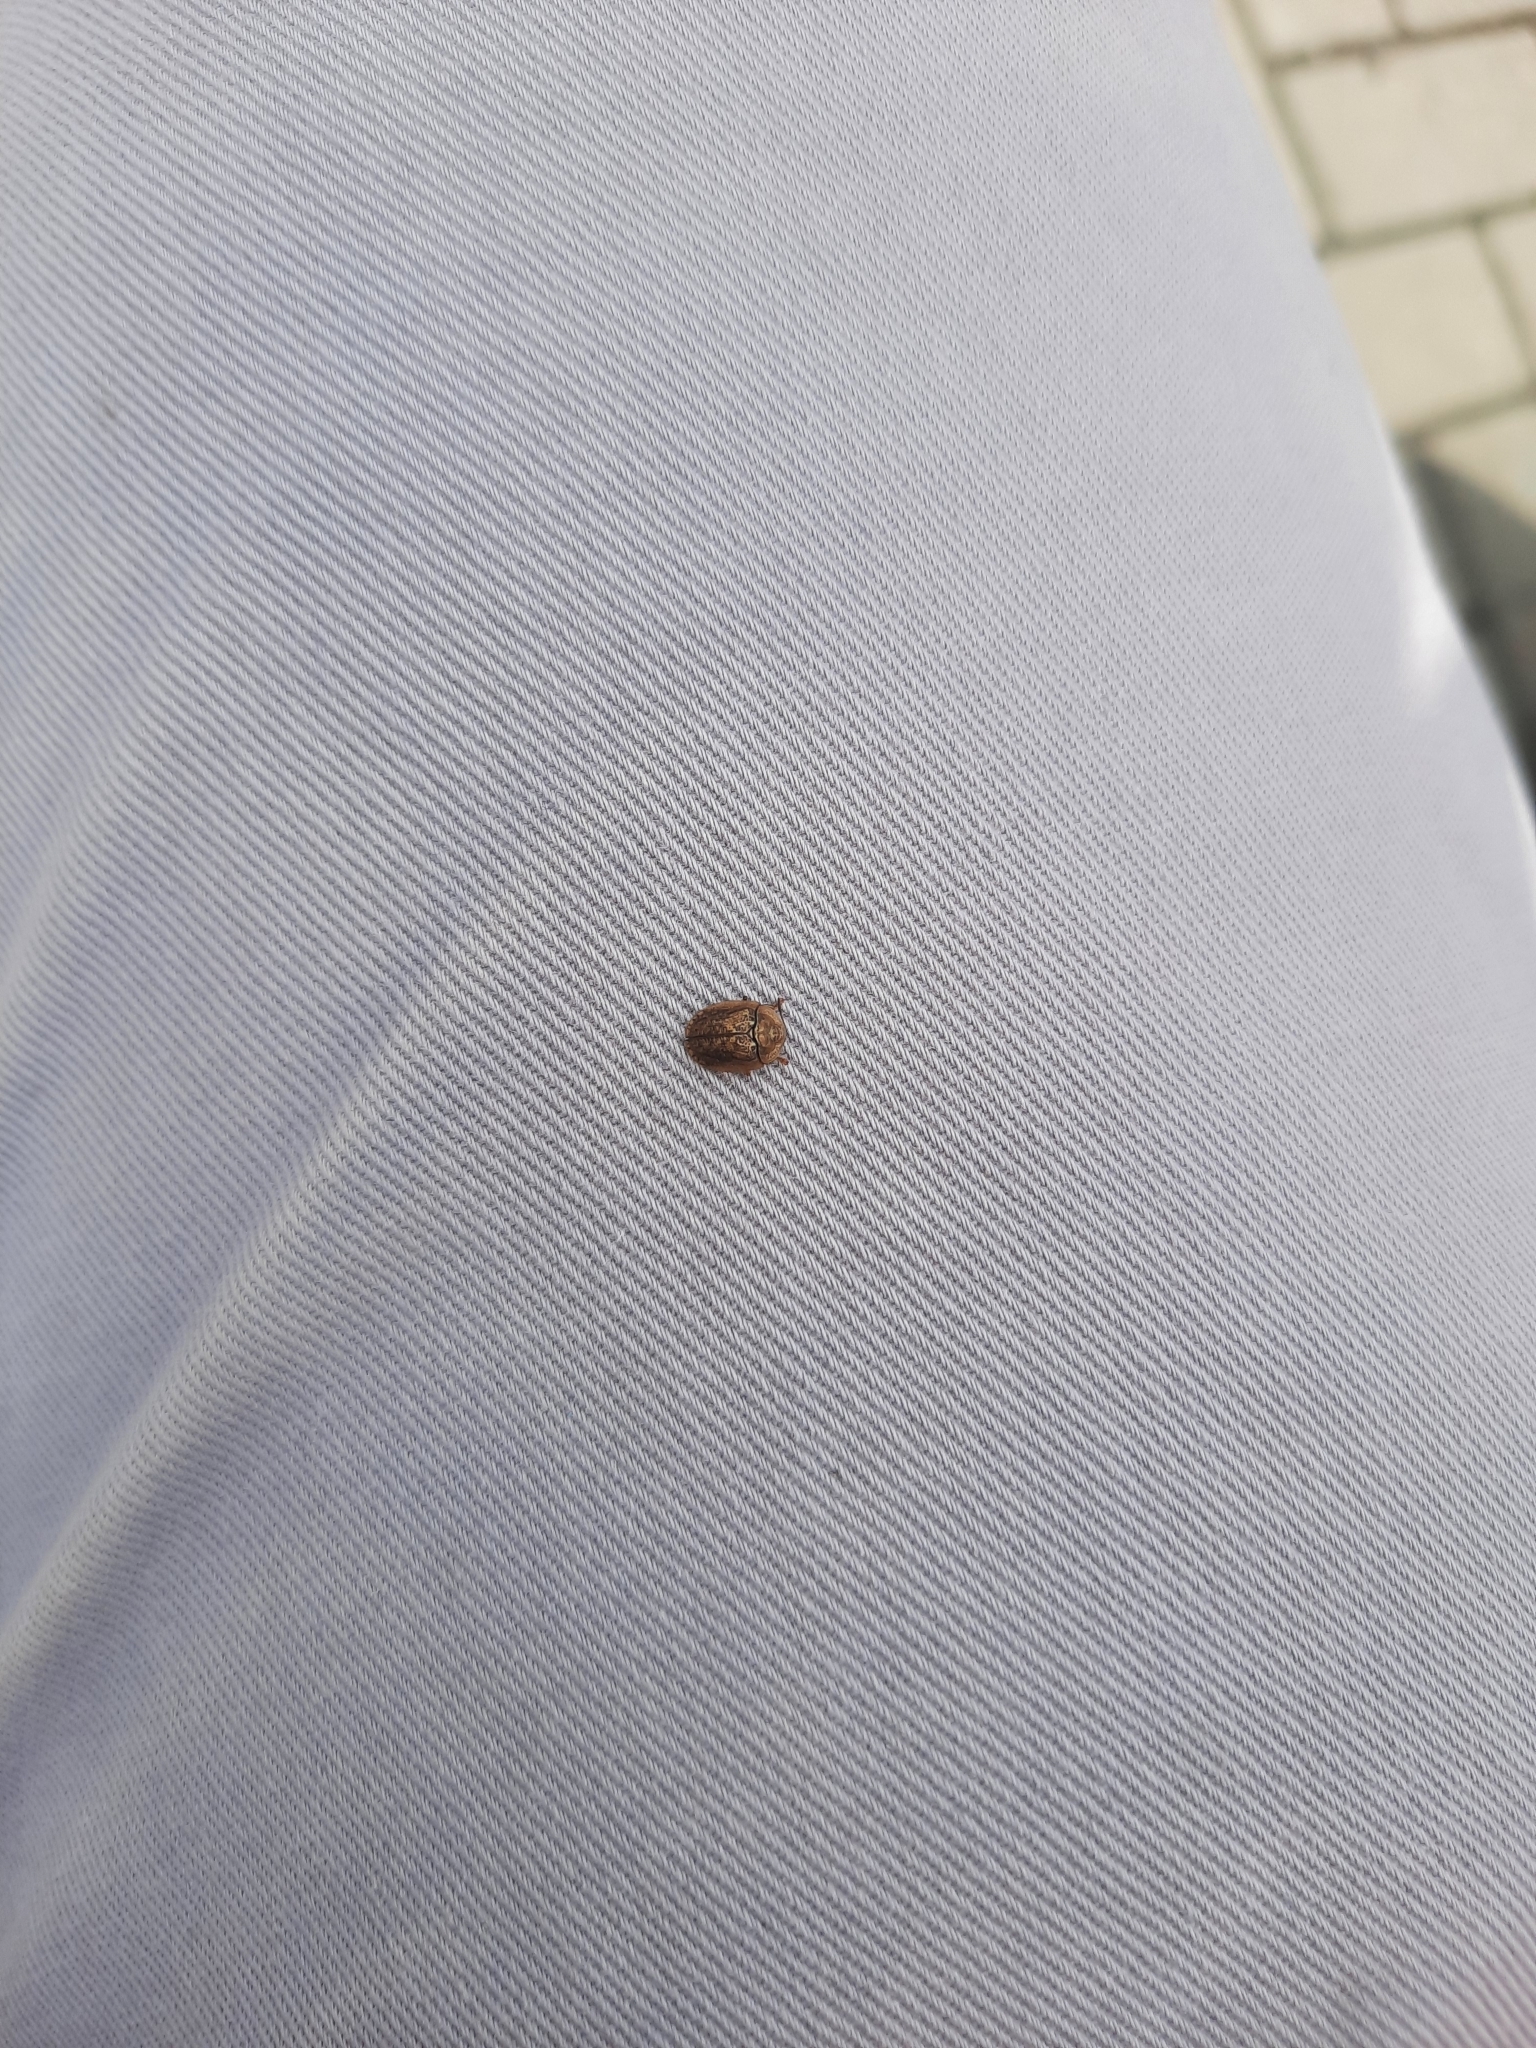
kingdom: Animalia
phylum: Arthropoda
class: Insecta
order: Coleoptera
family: Chrysomelidae
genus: Hypocassida
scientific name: Hypocassida subferruginea
